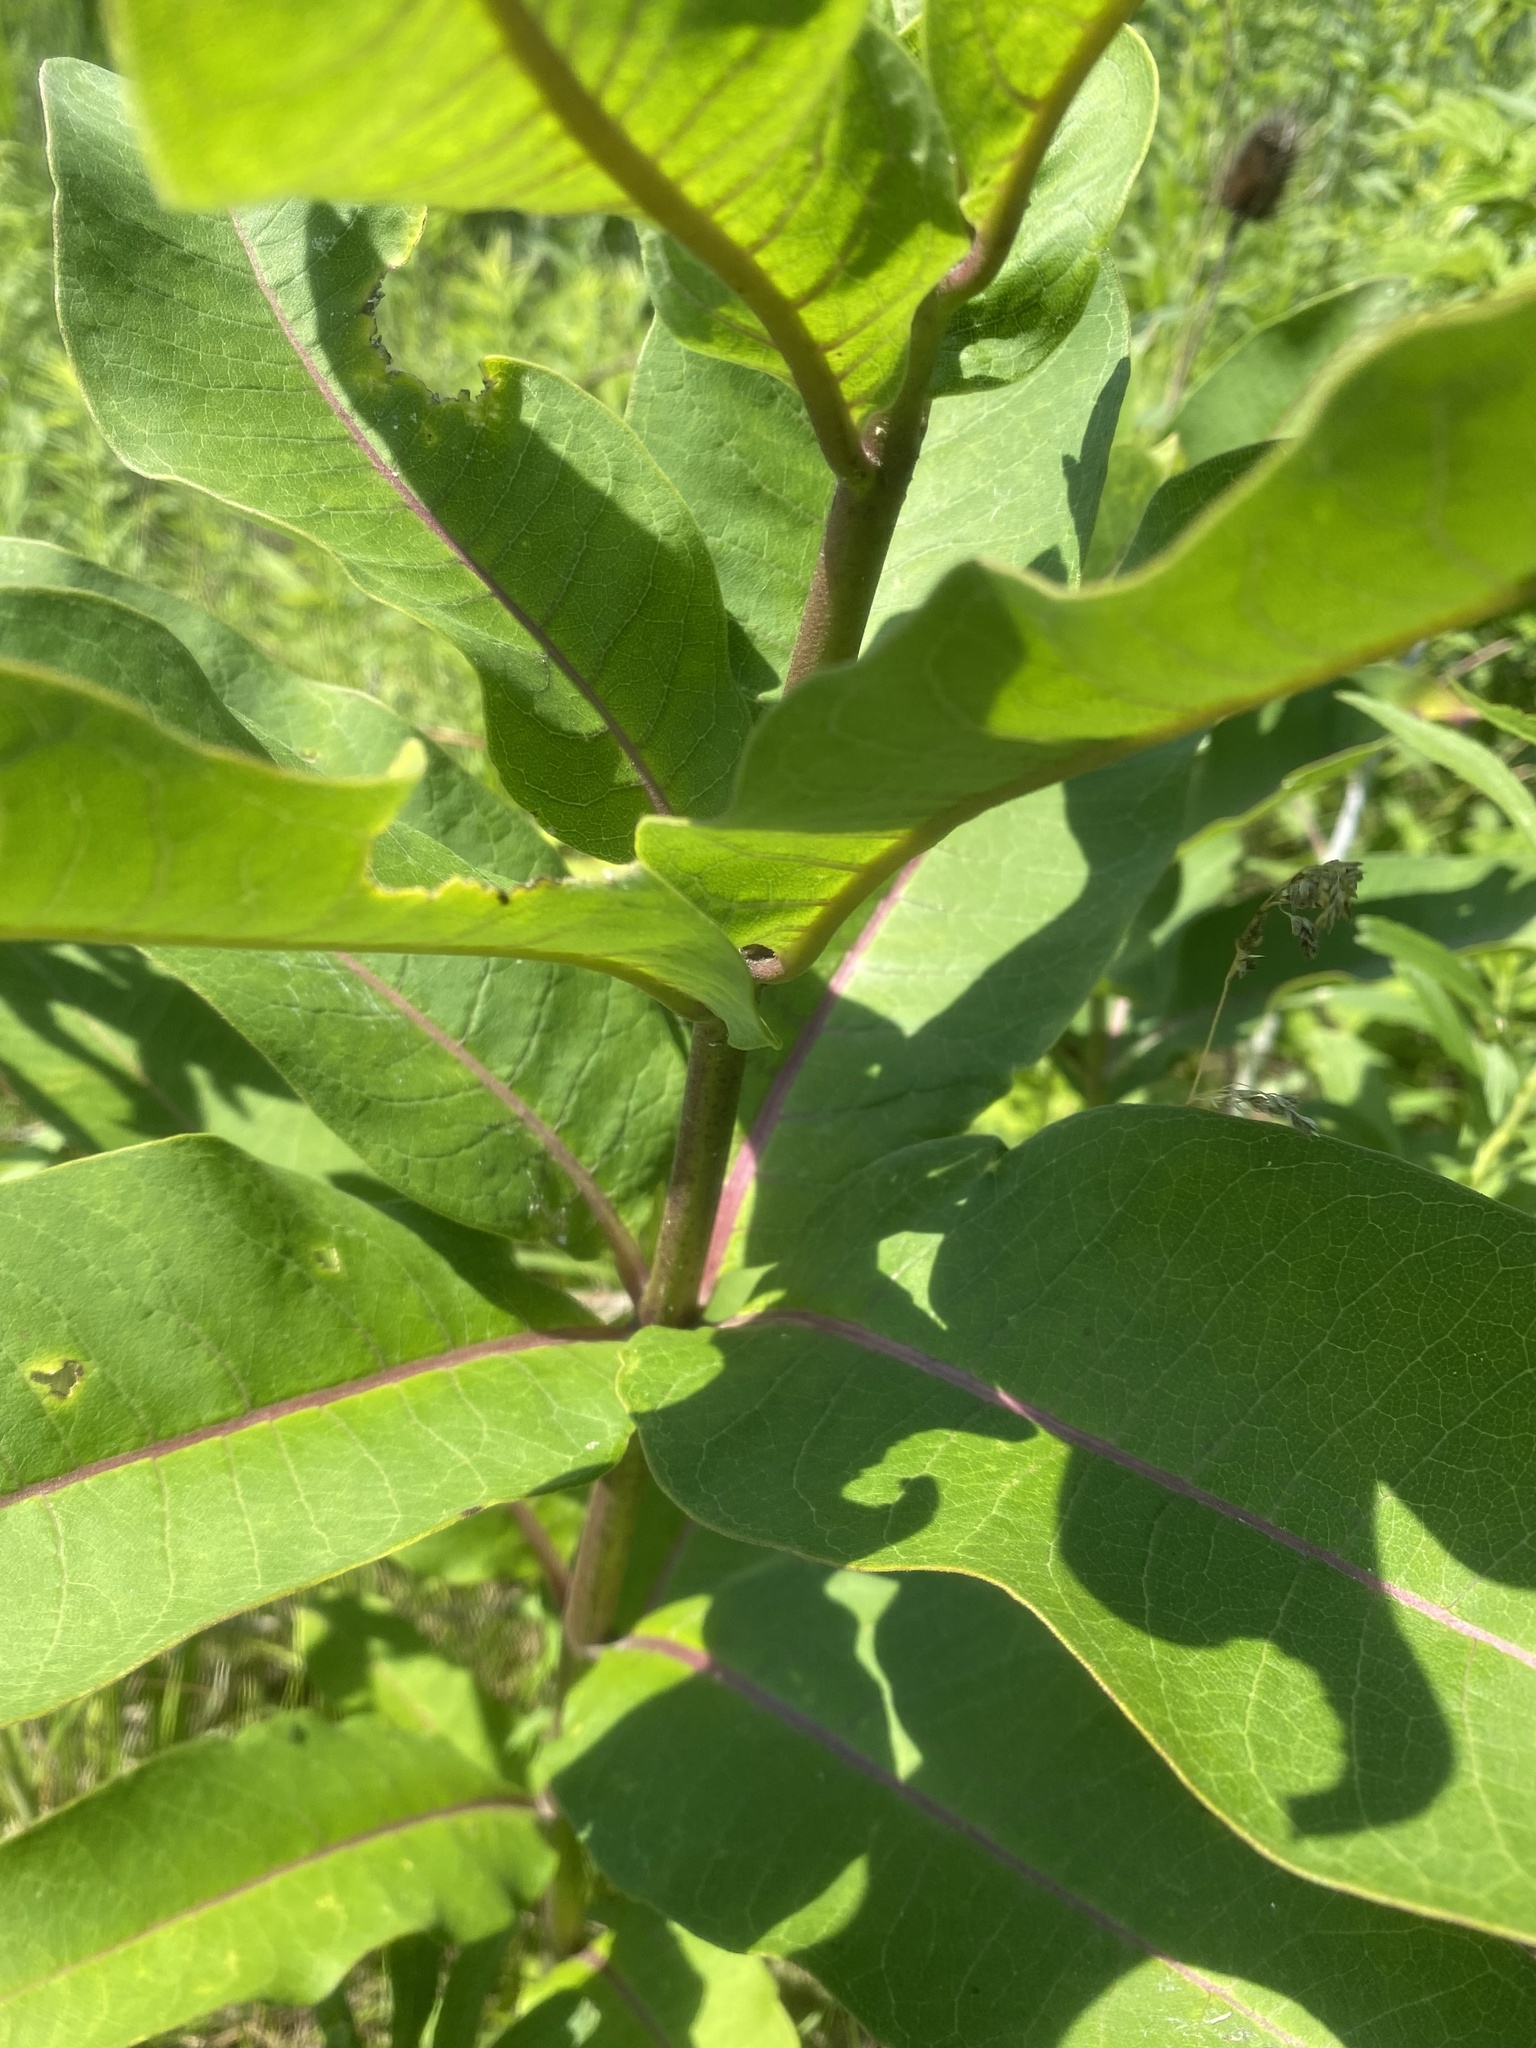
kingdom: Plantae
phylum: Tracheophyta
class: Magnoliopsida
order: Gentianales
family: Apocynaceae
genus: Asclepias
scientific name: Asclepias syriaca
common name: Common milkweed
